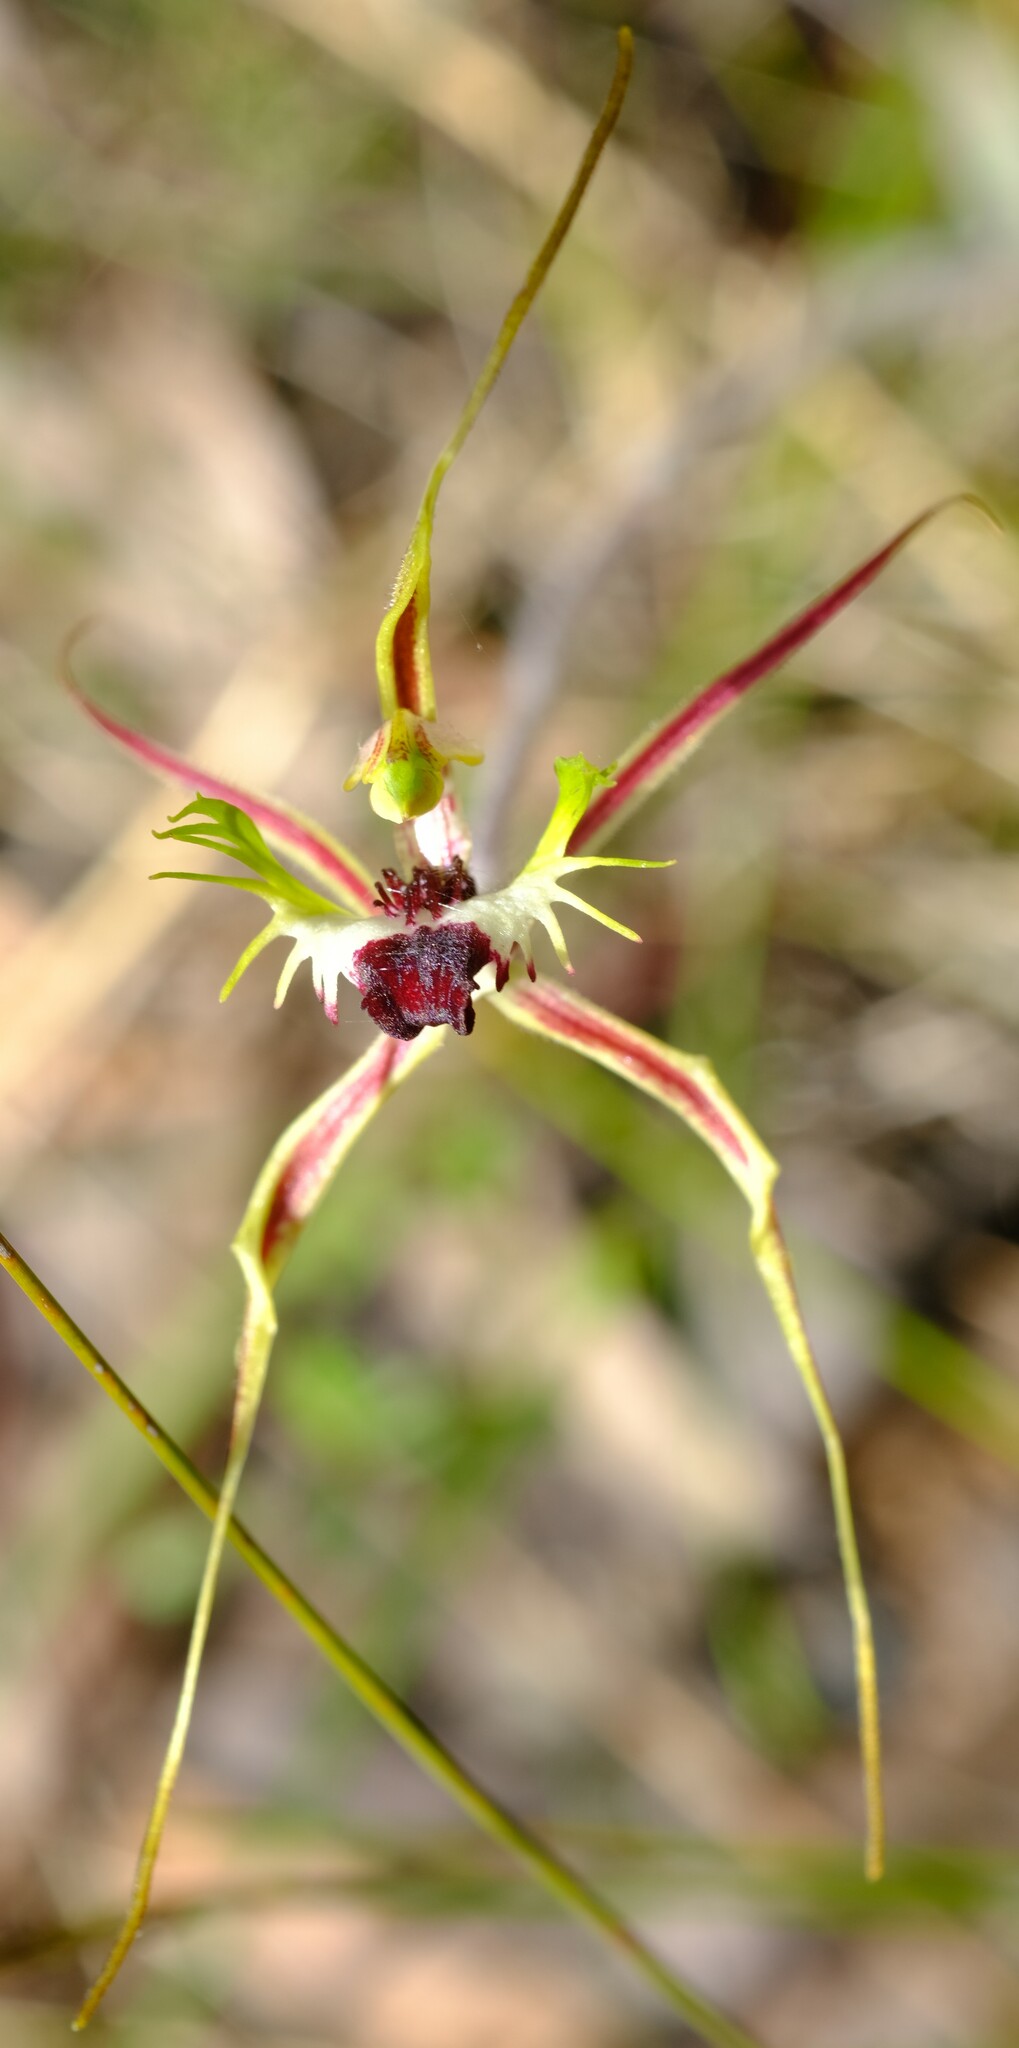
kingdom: Plantae
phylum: Tracheophyta
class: Liliopsida
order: Asparagales
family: Orchidaceae
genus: Caladenia
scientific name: Caladenia tentaculata
